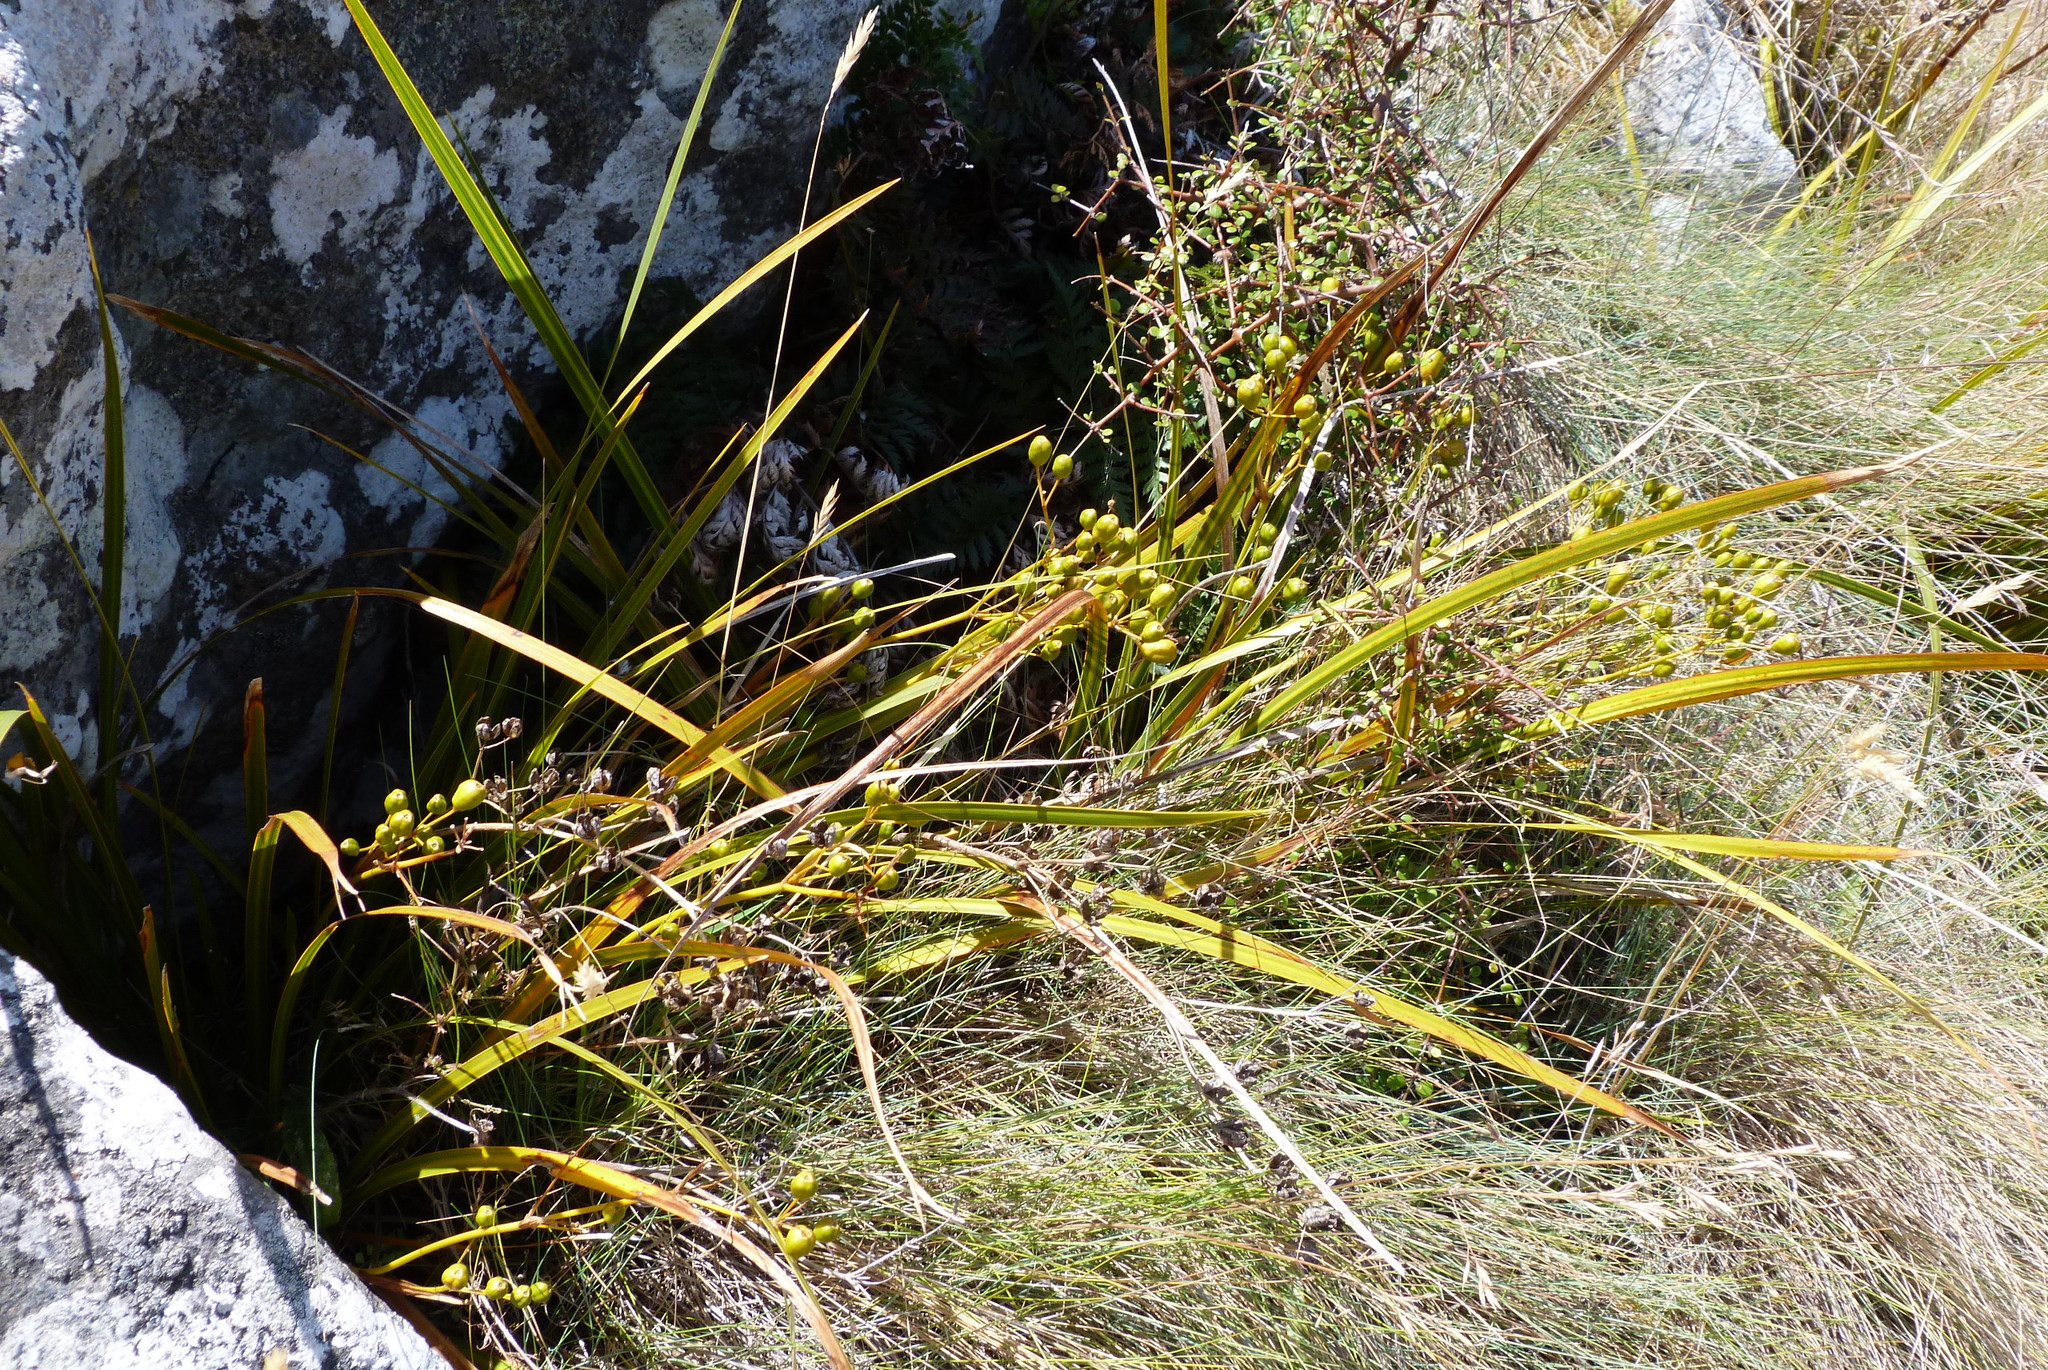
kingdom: Plantae
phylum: Tracheophyta
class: Liliopsida
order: Asparagales
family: Iridaceae
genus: Libertia
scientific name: Libertia ixioides
